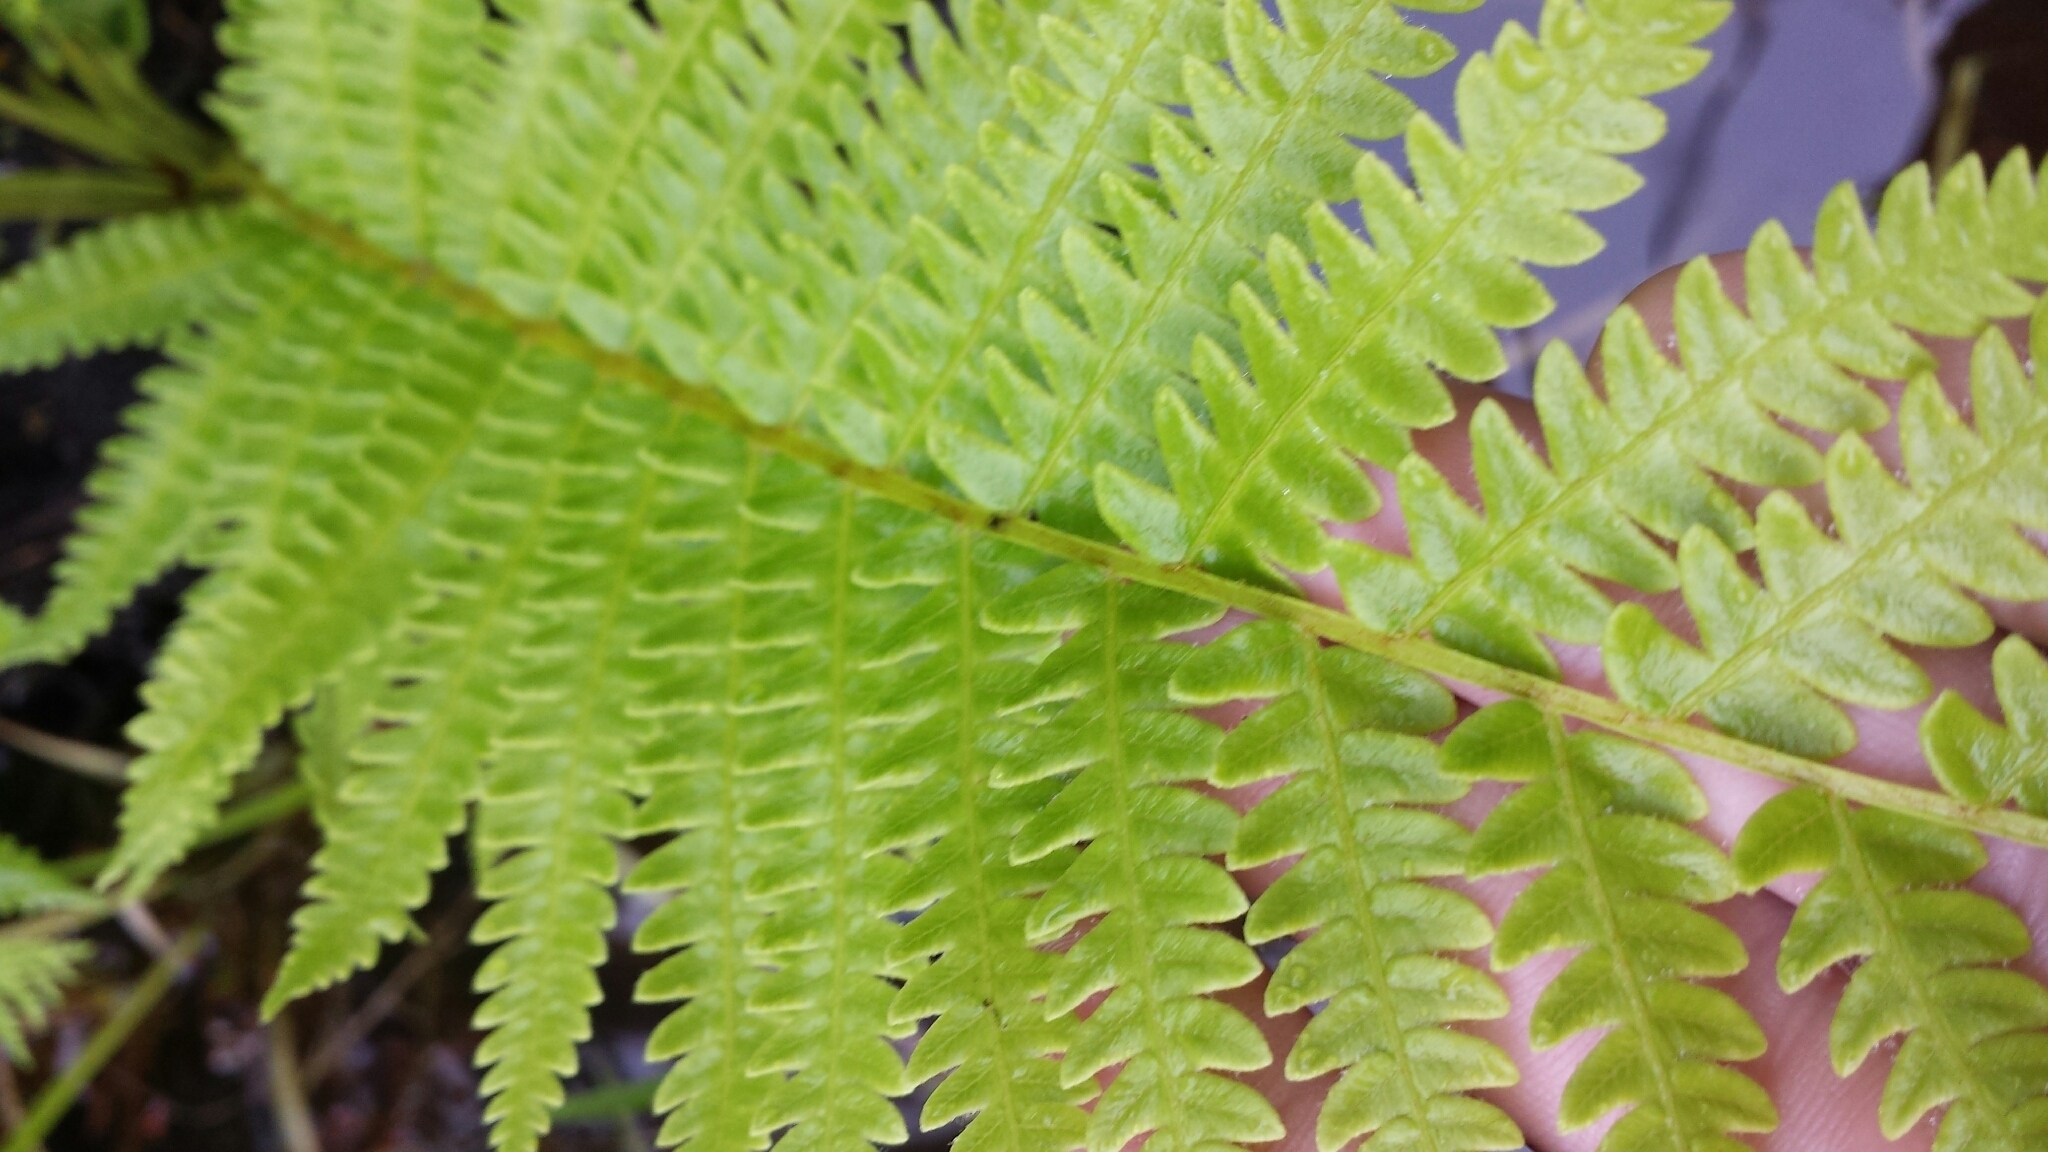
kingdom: Plantae
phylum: Tracheophyta
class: Polypodiopsida
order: Osmundales
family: Osmundaceae
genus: Osmundastrum
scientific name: Osmundastrum cinnamomeum
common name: Cinnamon fern
